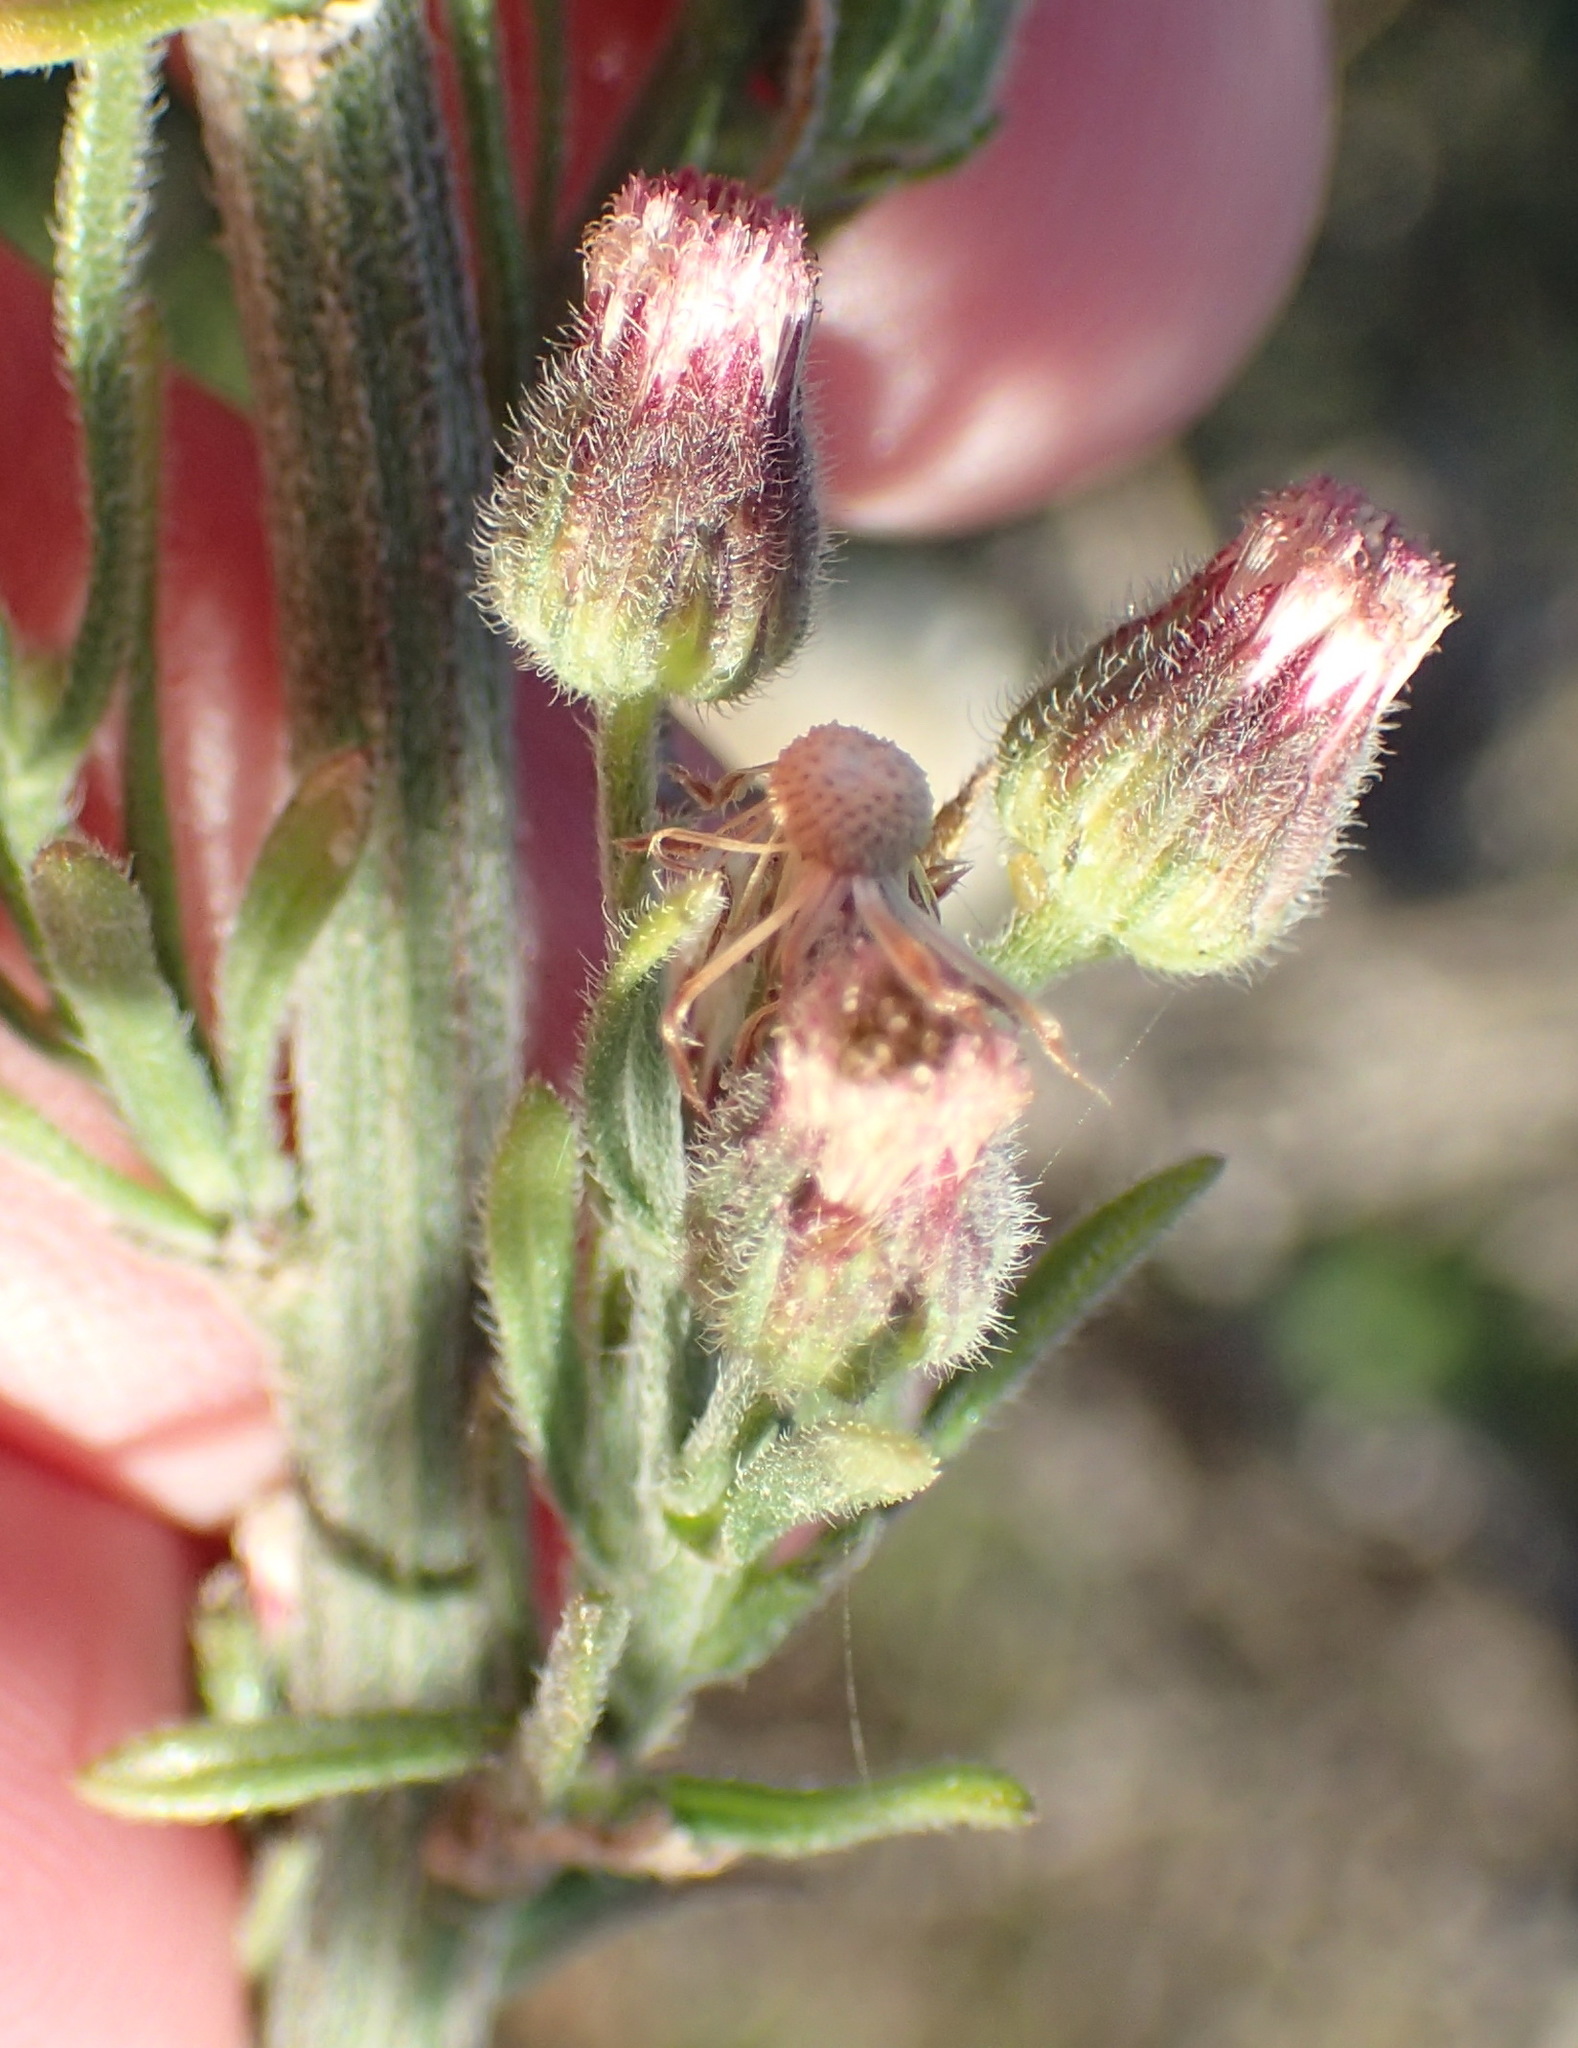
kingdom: Plantae
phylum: Tracheophyta
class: Magnoliopsida
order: Asterales
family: Asteraceae
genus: Erigeron
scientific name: Erigeron bonariensis
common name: Argentine fleabane
